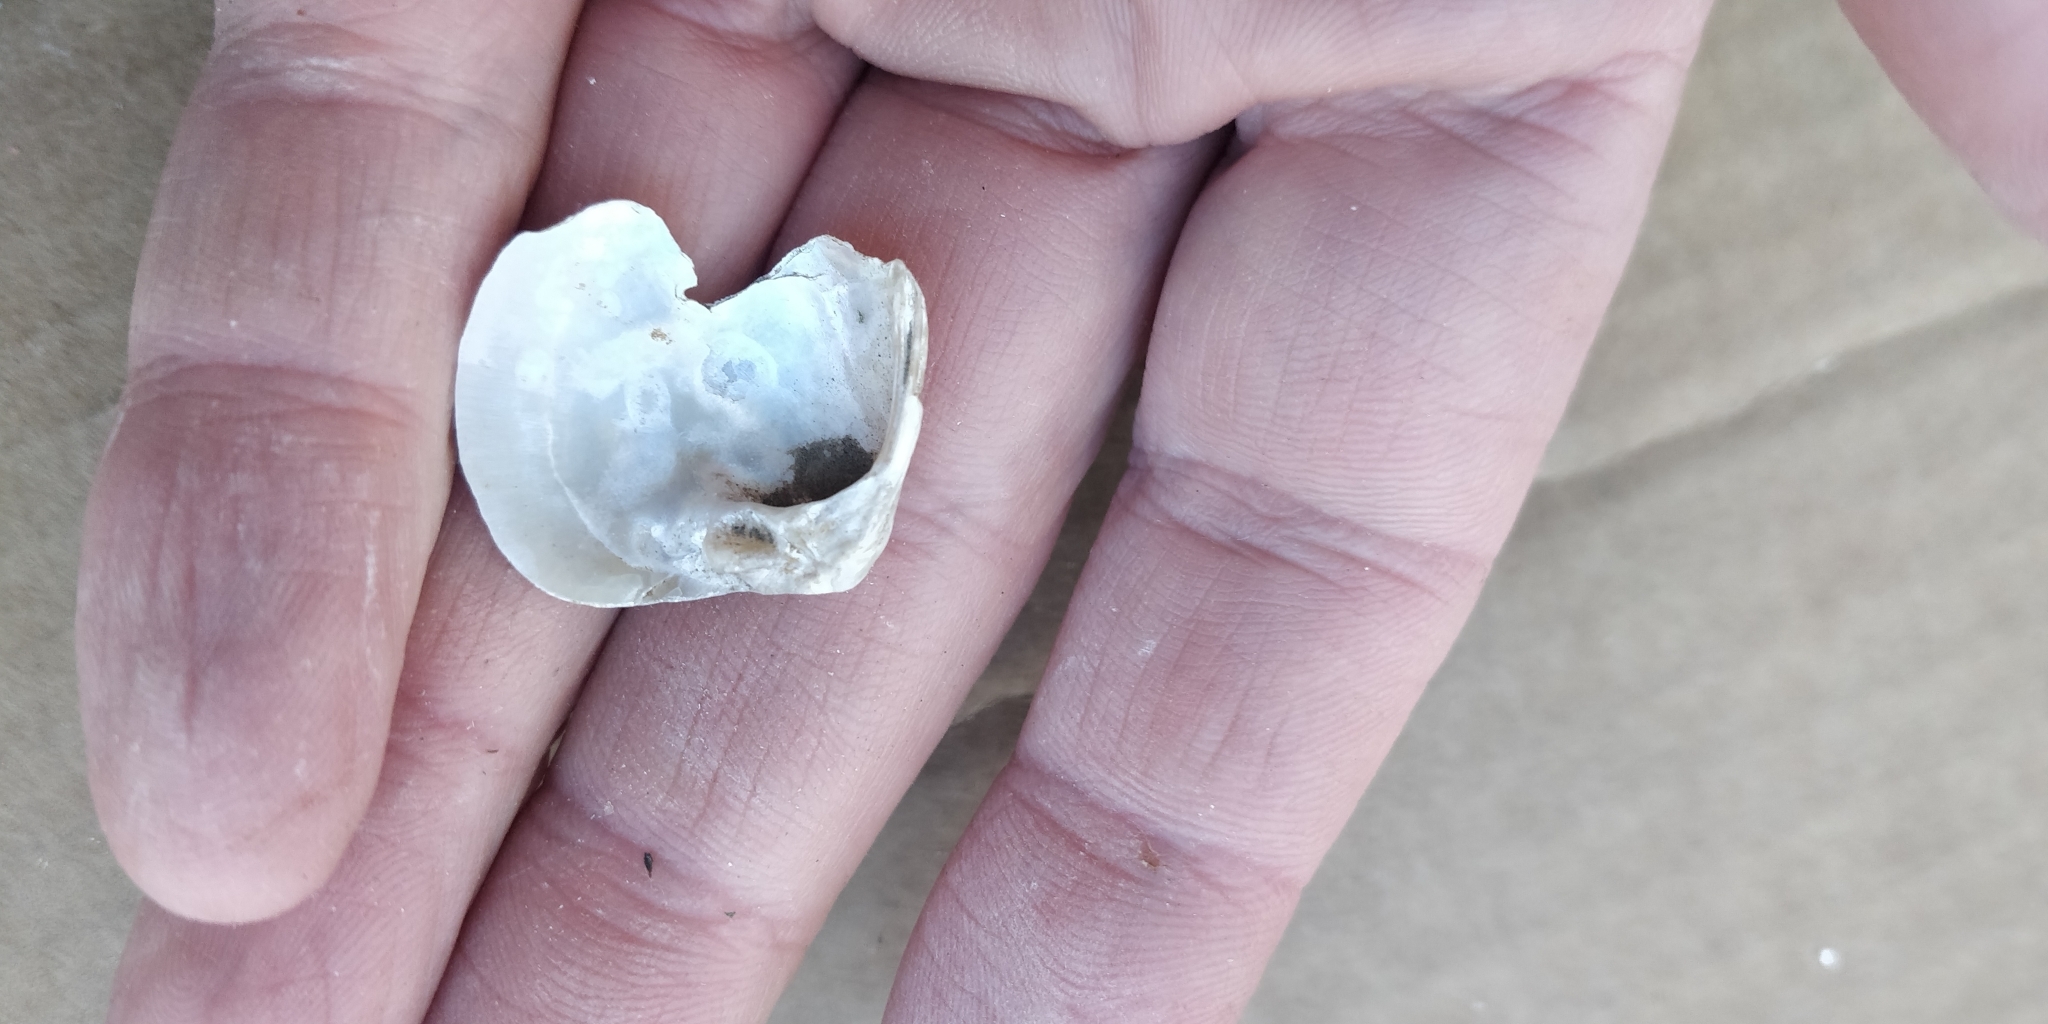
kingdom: Animalia
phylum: Mollusca
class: Bivalvia
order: Unionida
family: Unionidae
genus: Cyclonaias
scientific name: Cyclonaias pustulosa
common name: Pimpleback
